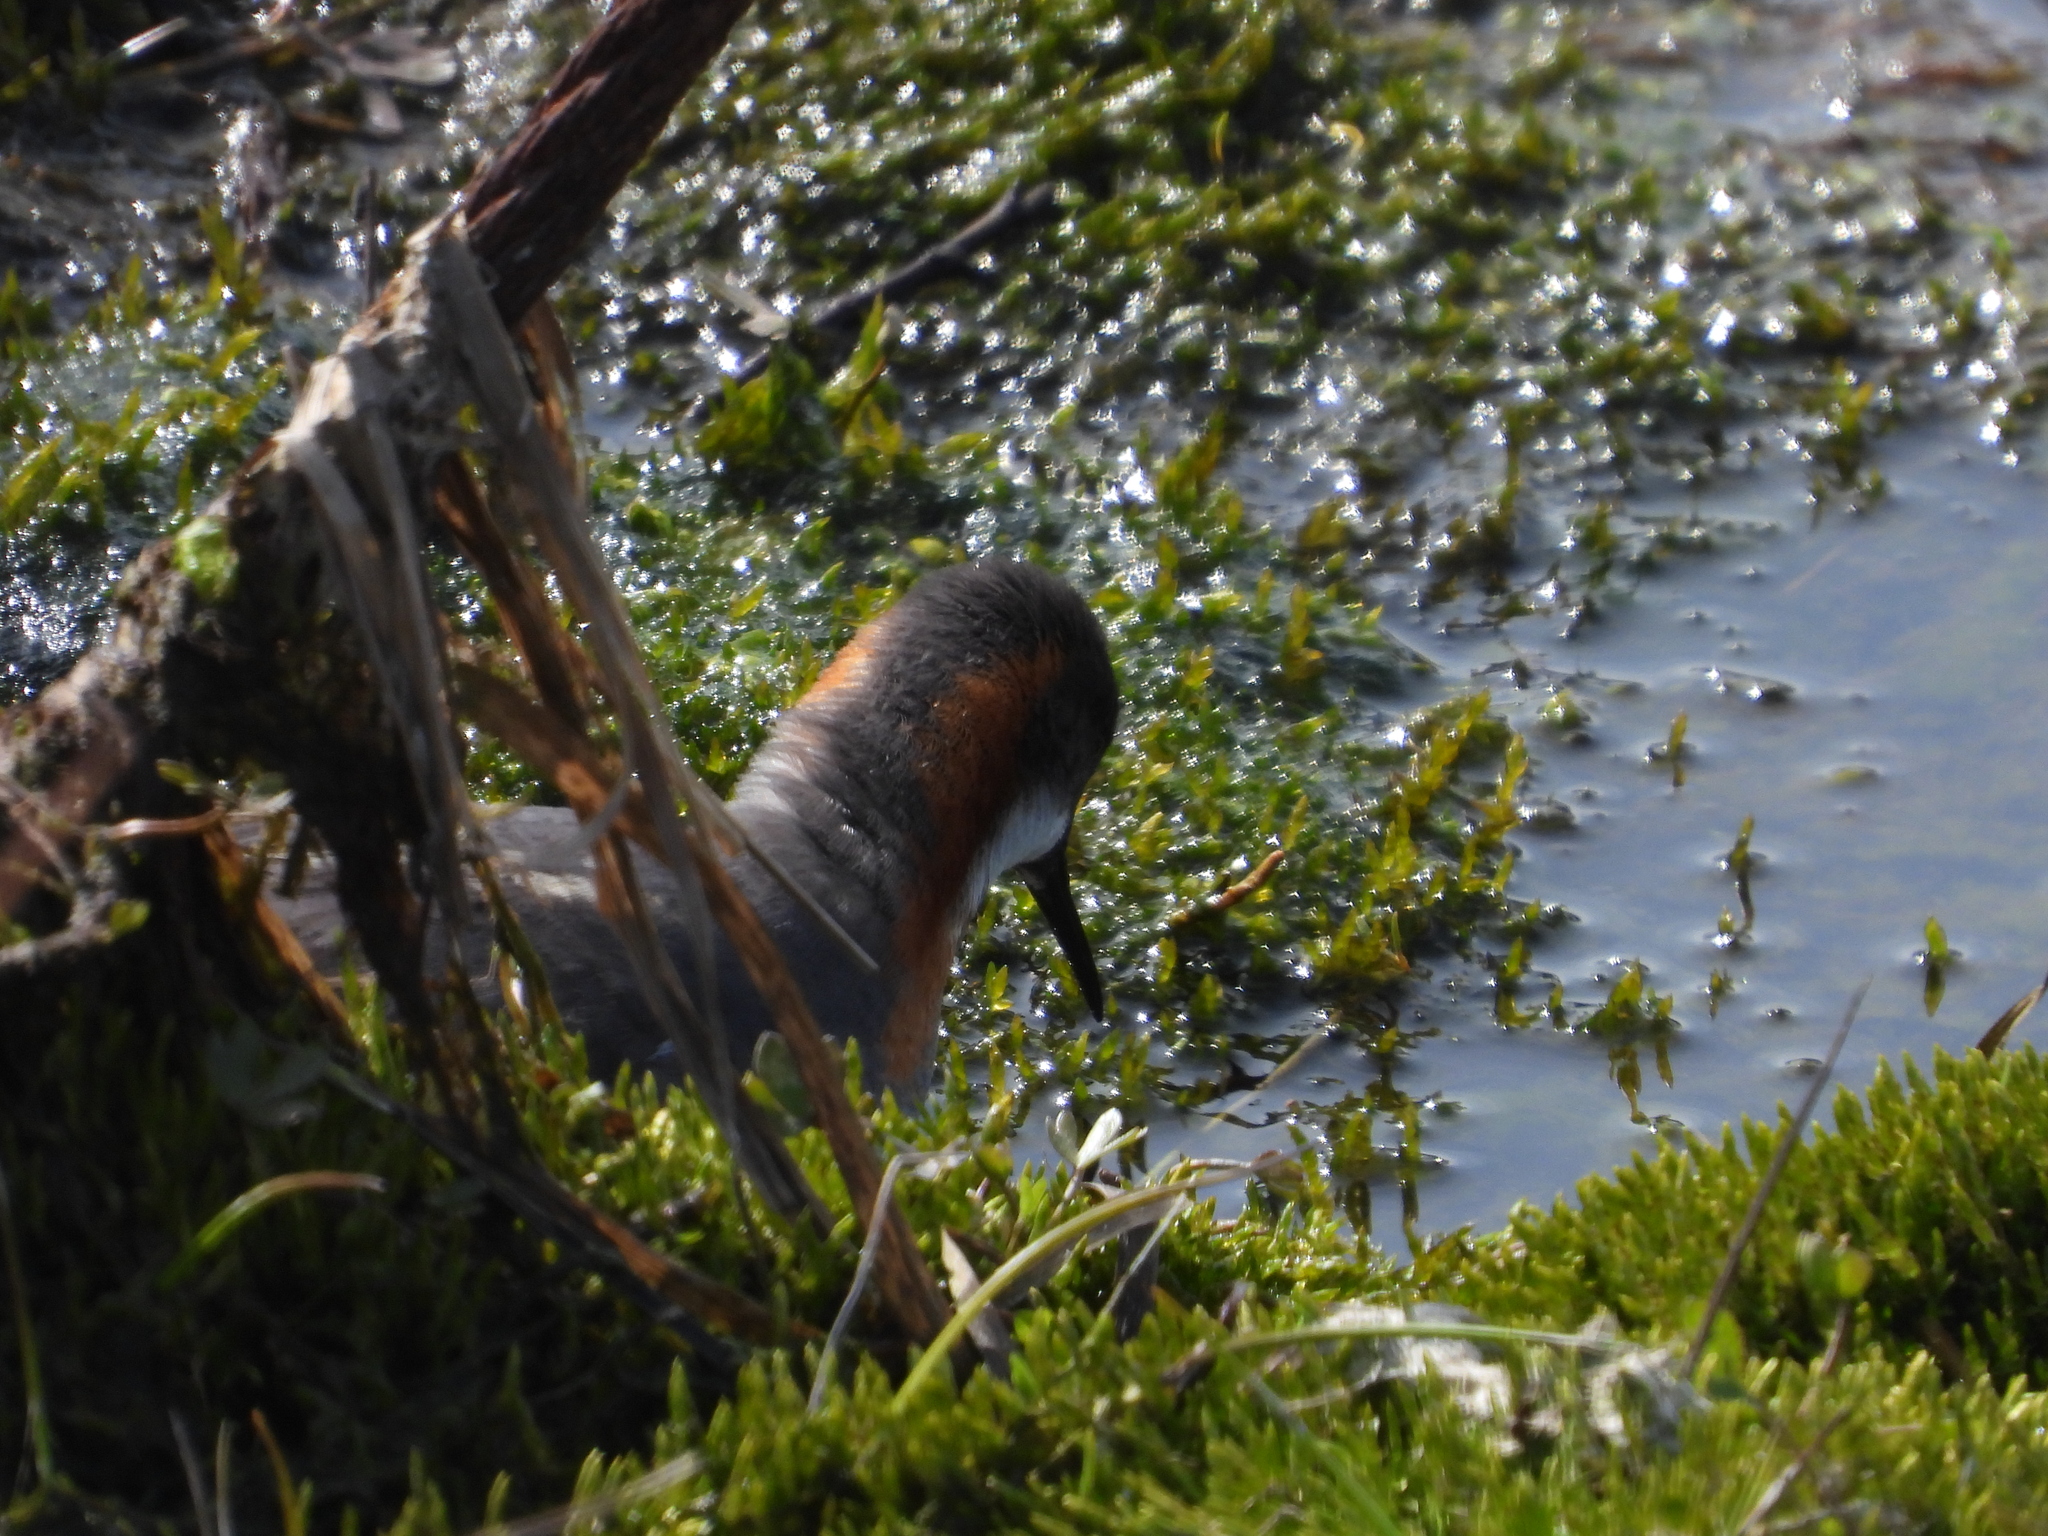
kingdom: Animalia
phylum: Chordata
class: Aves
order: Charadriiformes
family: Scolopacidae
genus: Phalaropus
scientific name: Phalaropus lobatus
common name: Red-necked phalarope
